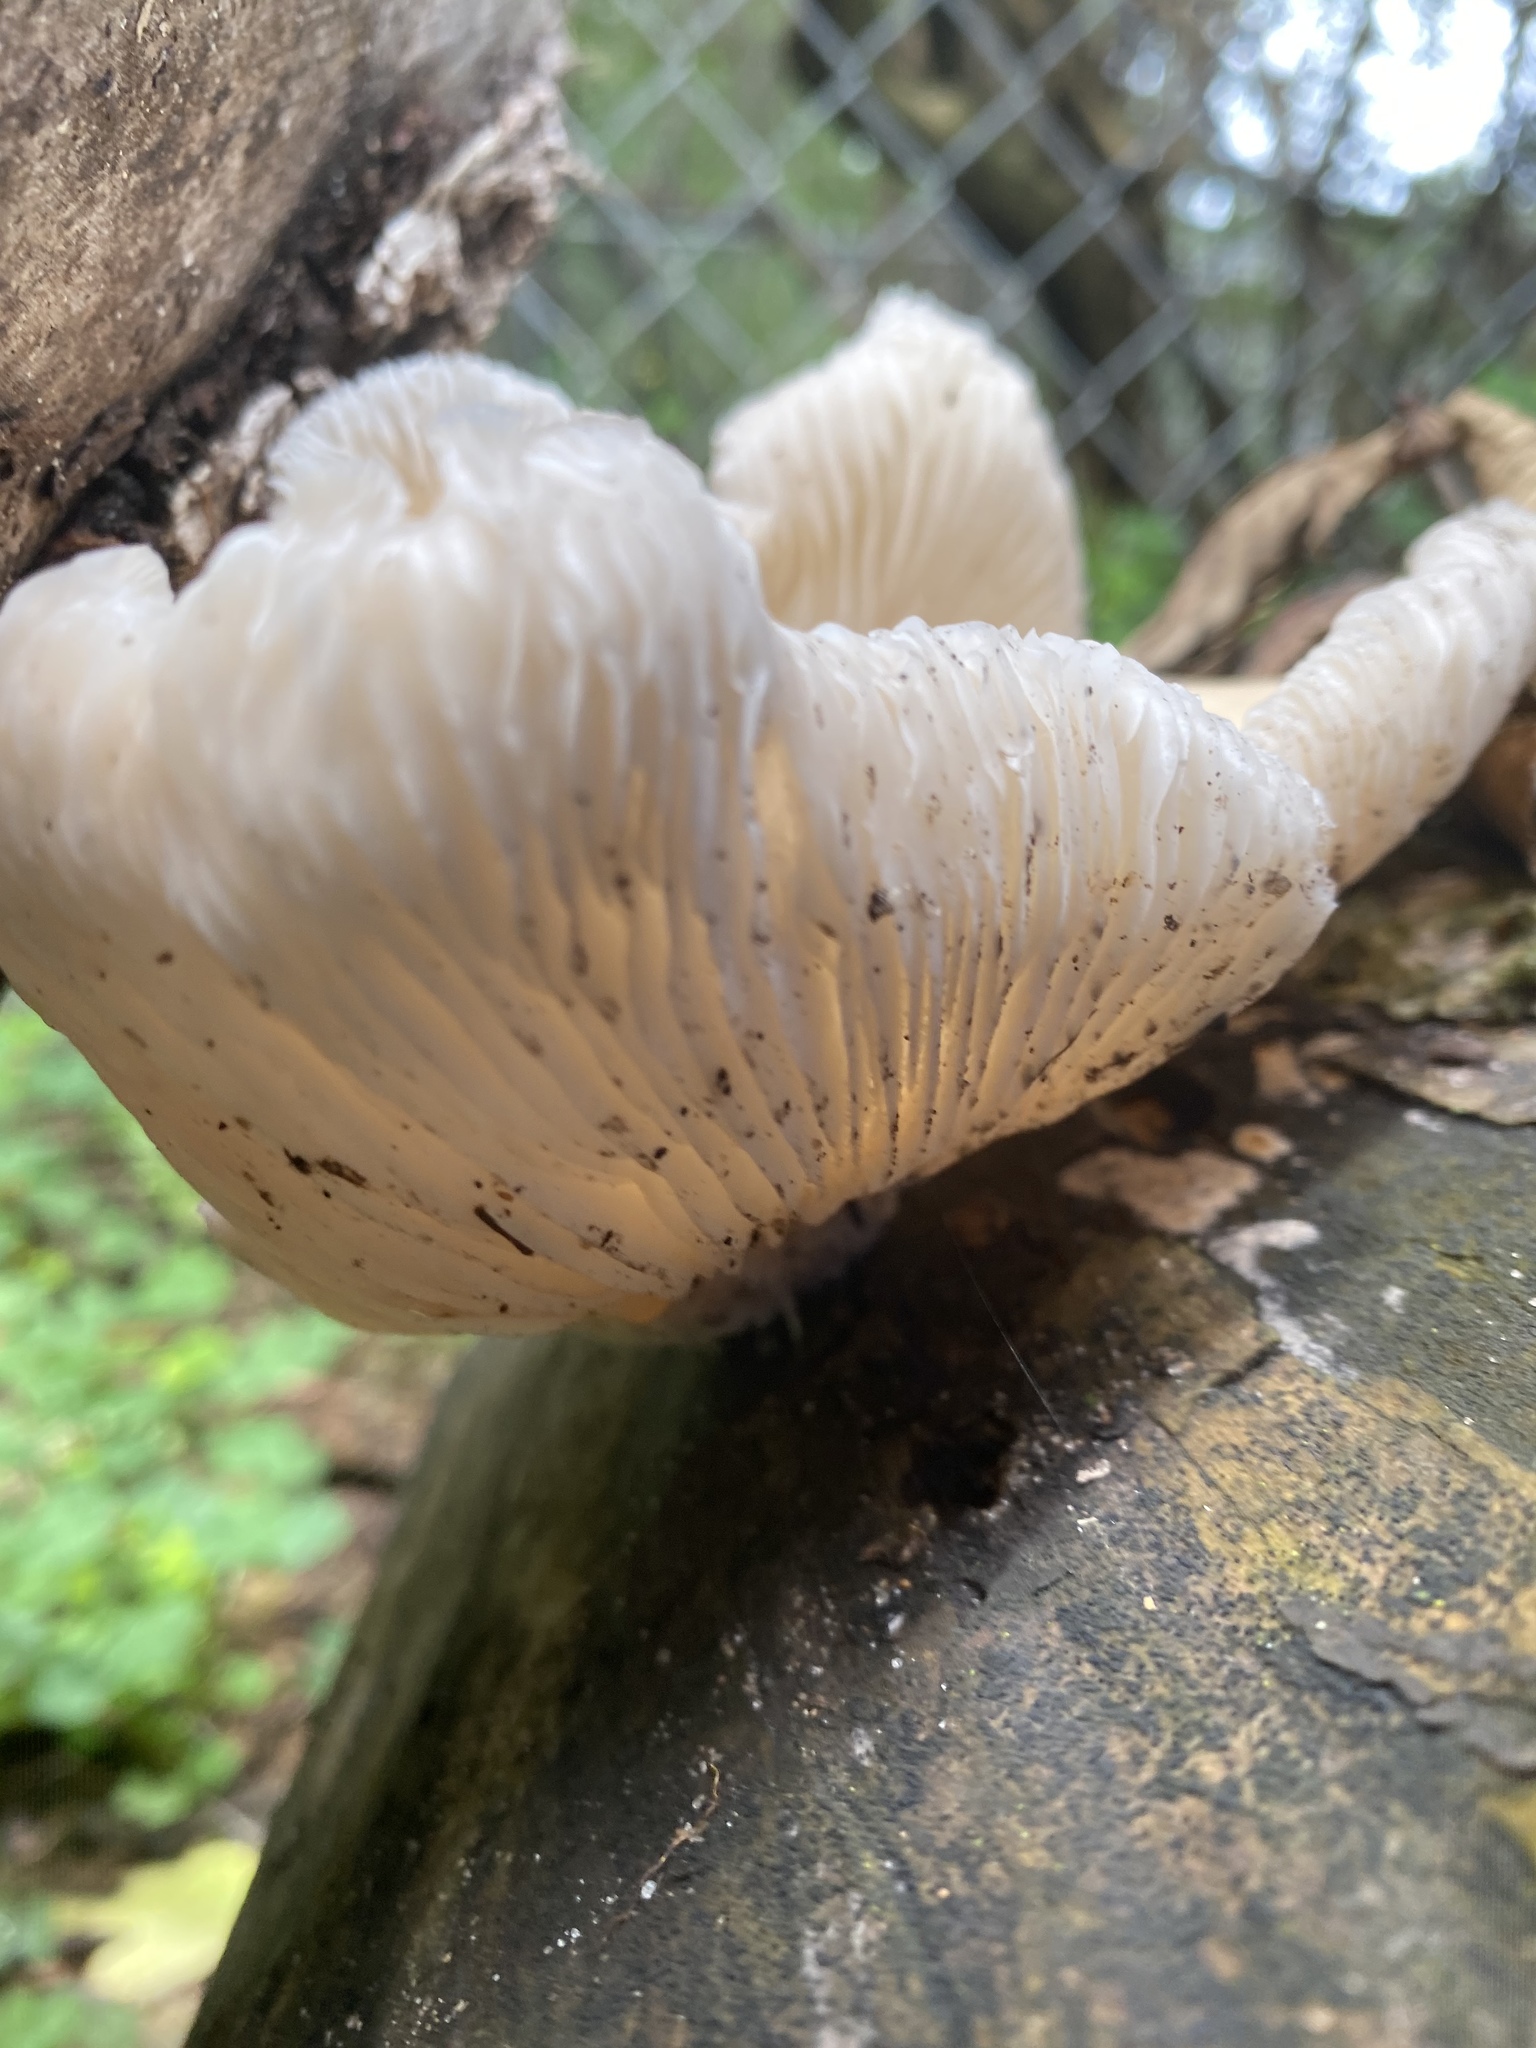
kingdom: Fungi
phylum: Basidiomycota
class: Agaricomycetes
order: Agaricales
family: Pleurotaceae
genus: Pleurotus
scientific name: Pleurotus ostreatus
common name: Oyster mushroom
